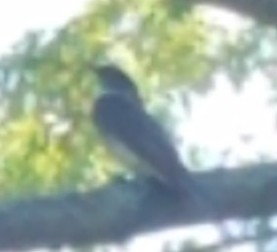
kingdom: Animalia
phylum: Chordata
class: Aves
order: Passeriformes
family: Tyrannidae
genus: Tyrannus
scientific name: Tyrannus tyrannus
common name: Eastern kingbird
